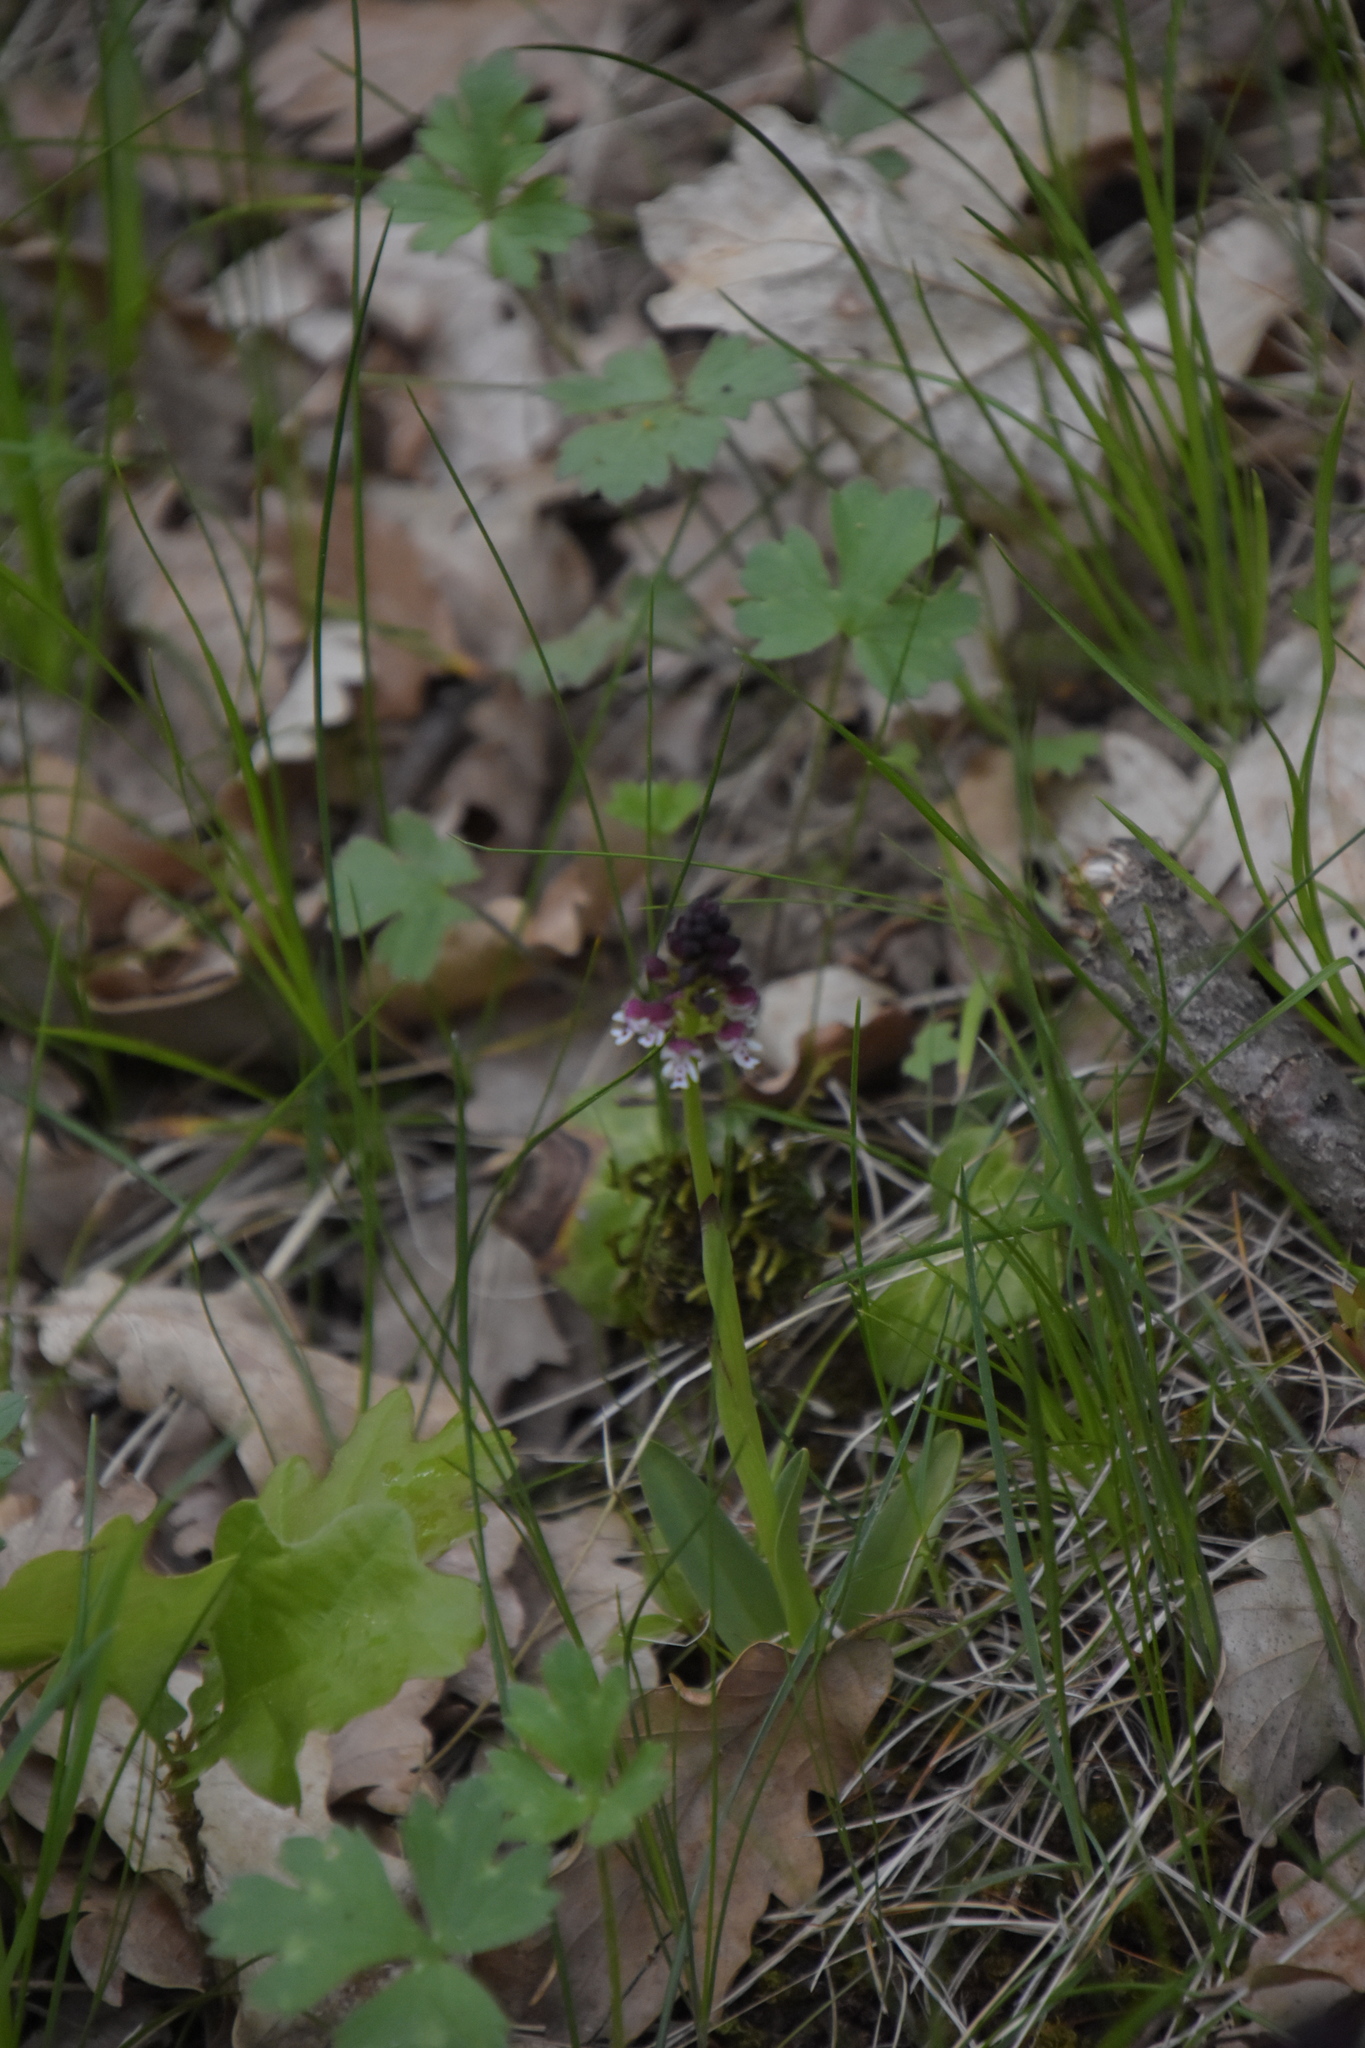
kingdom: Plantae
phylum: Tracheophyta
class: Liliopsida
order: Asparagales
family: Orchidaceae
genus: Neotinea
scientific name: Neotinea ustulata
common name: Burnt orchid
